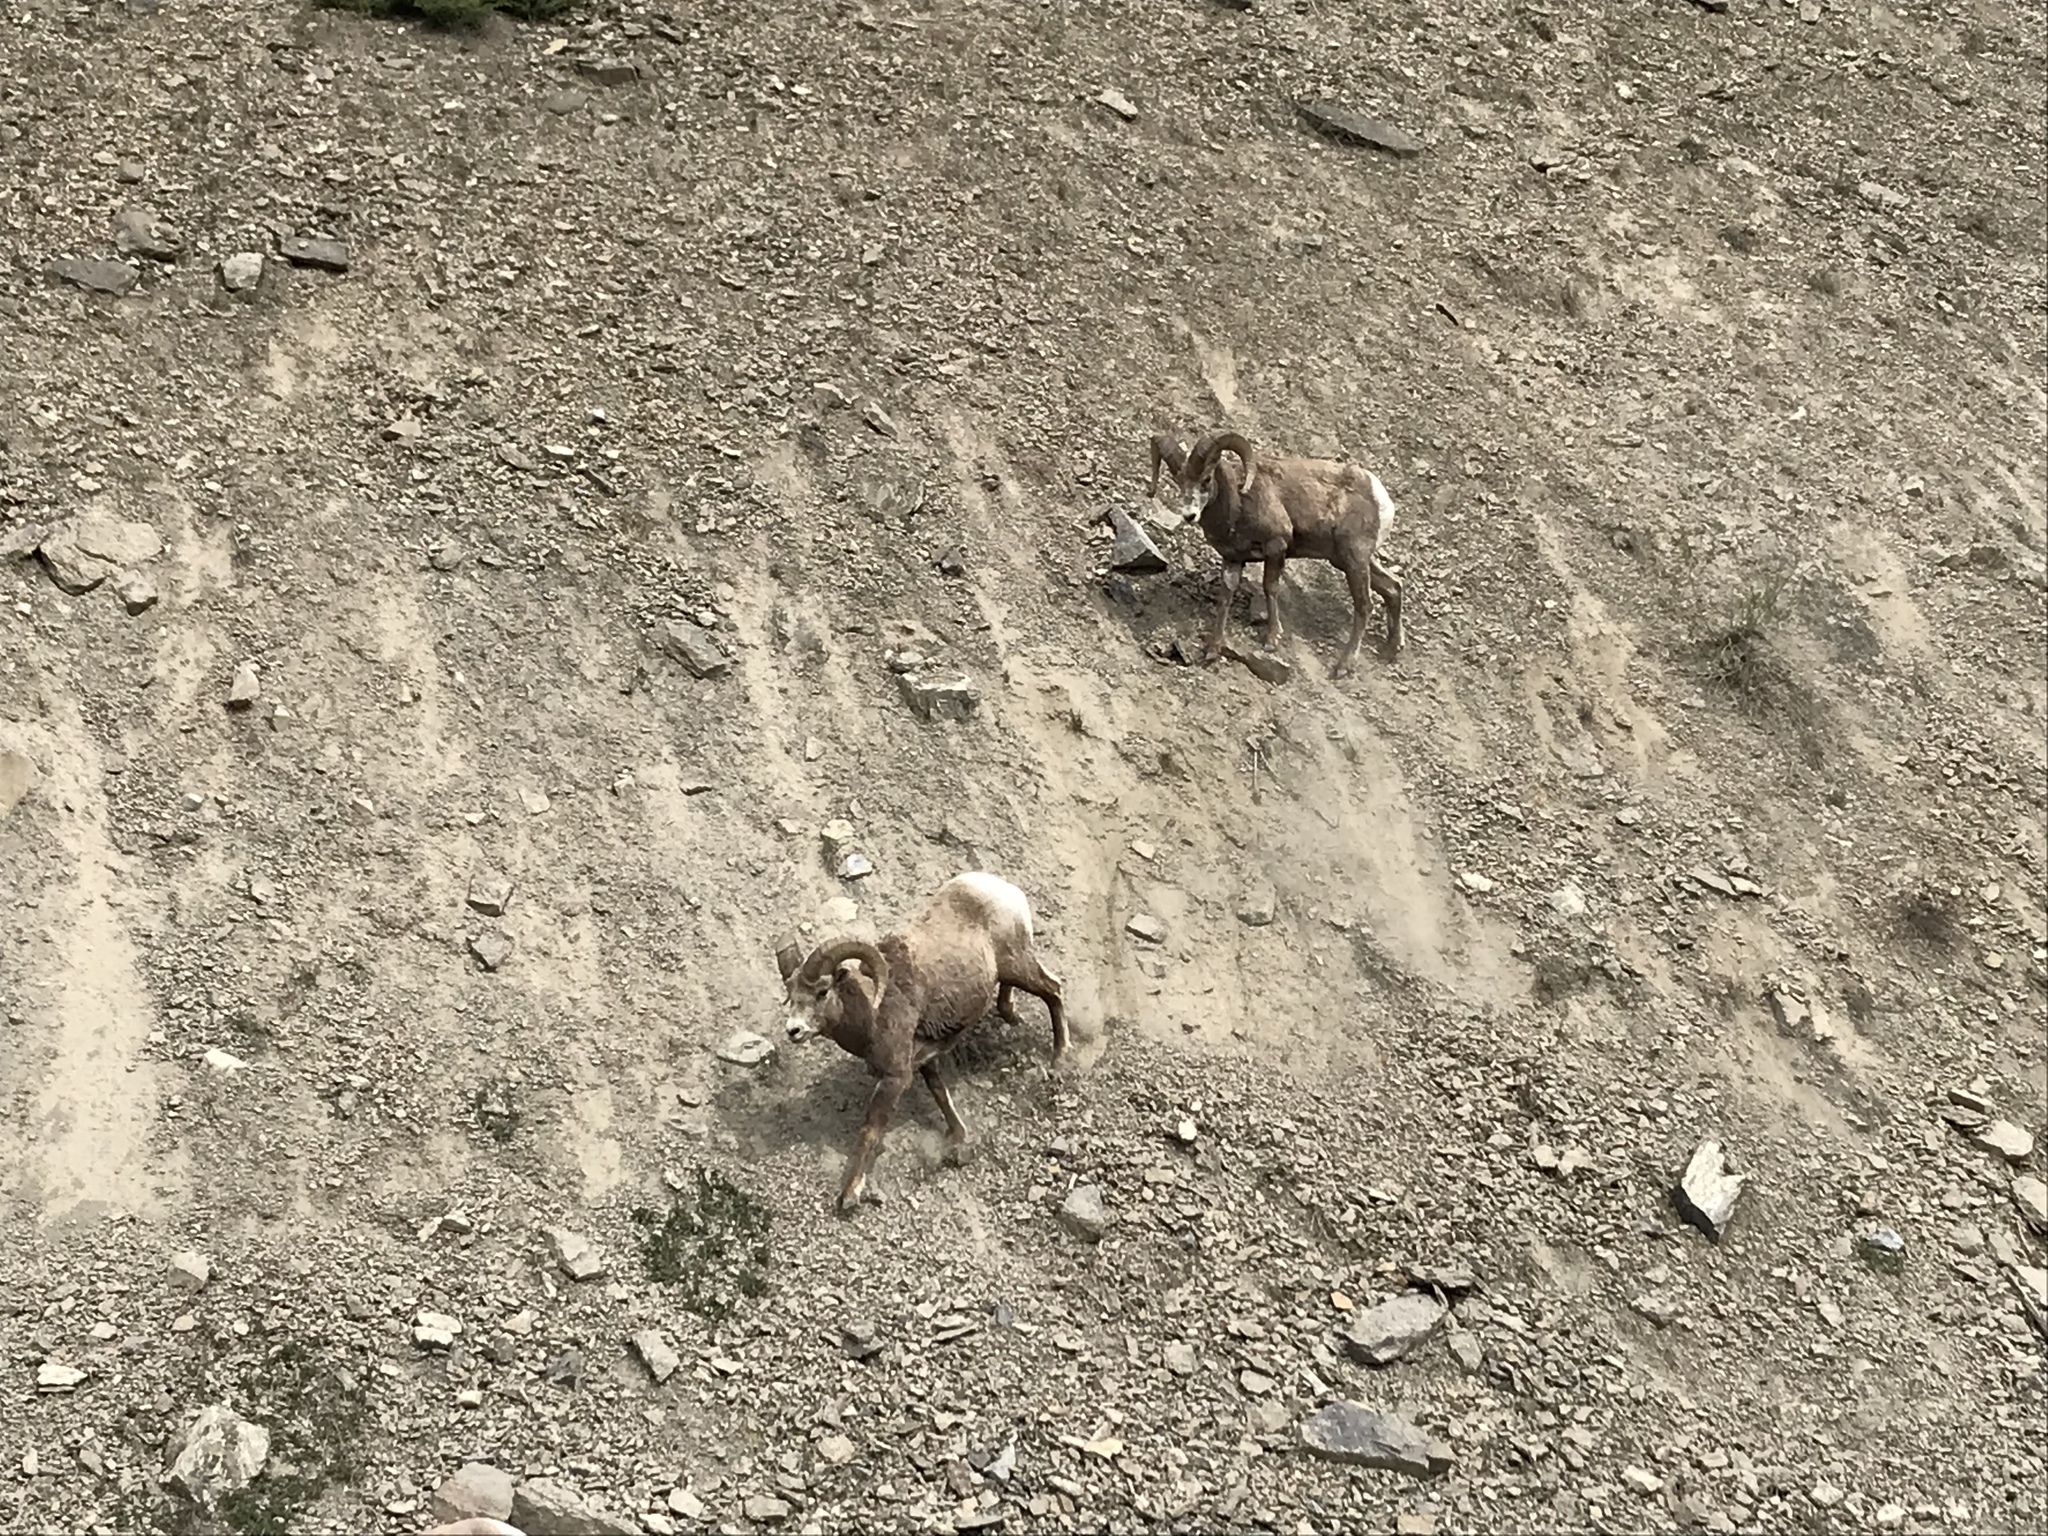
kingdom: Animalia
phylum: Chordata
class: Mammalia
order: Artiodactyla
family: Bovidae
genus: Ovis
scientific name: Ovis canadensis
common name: Bighorn sheep
